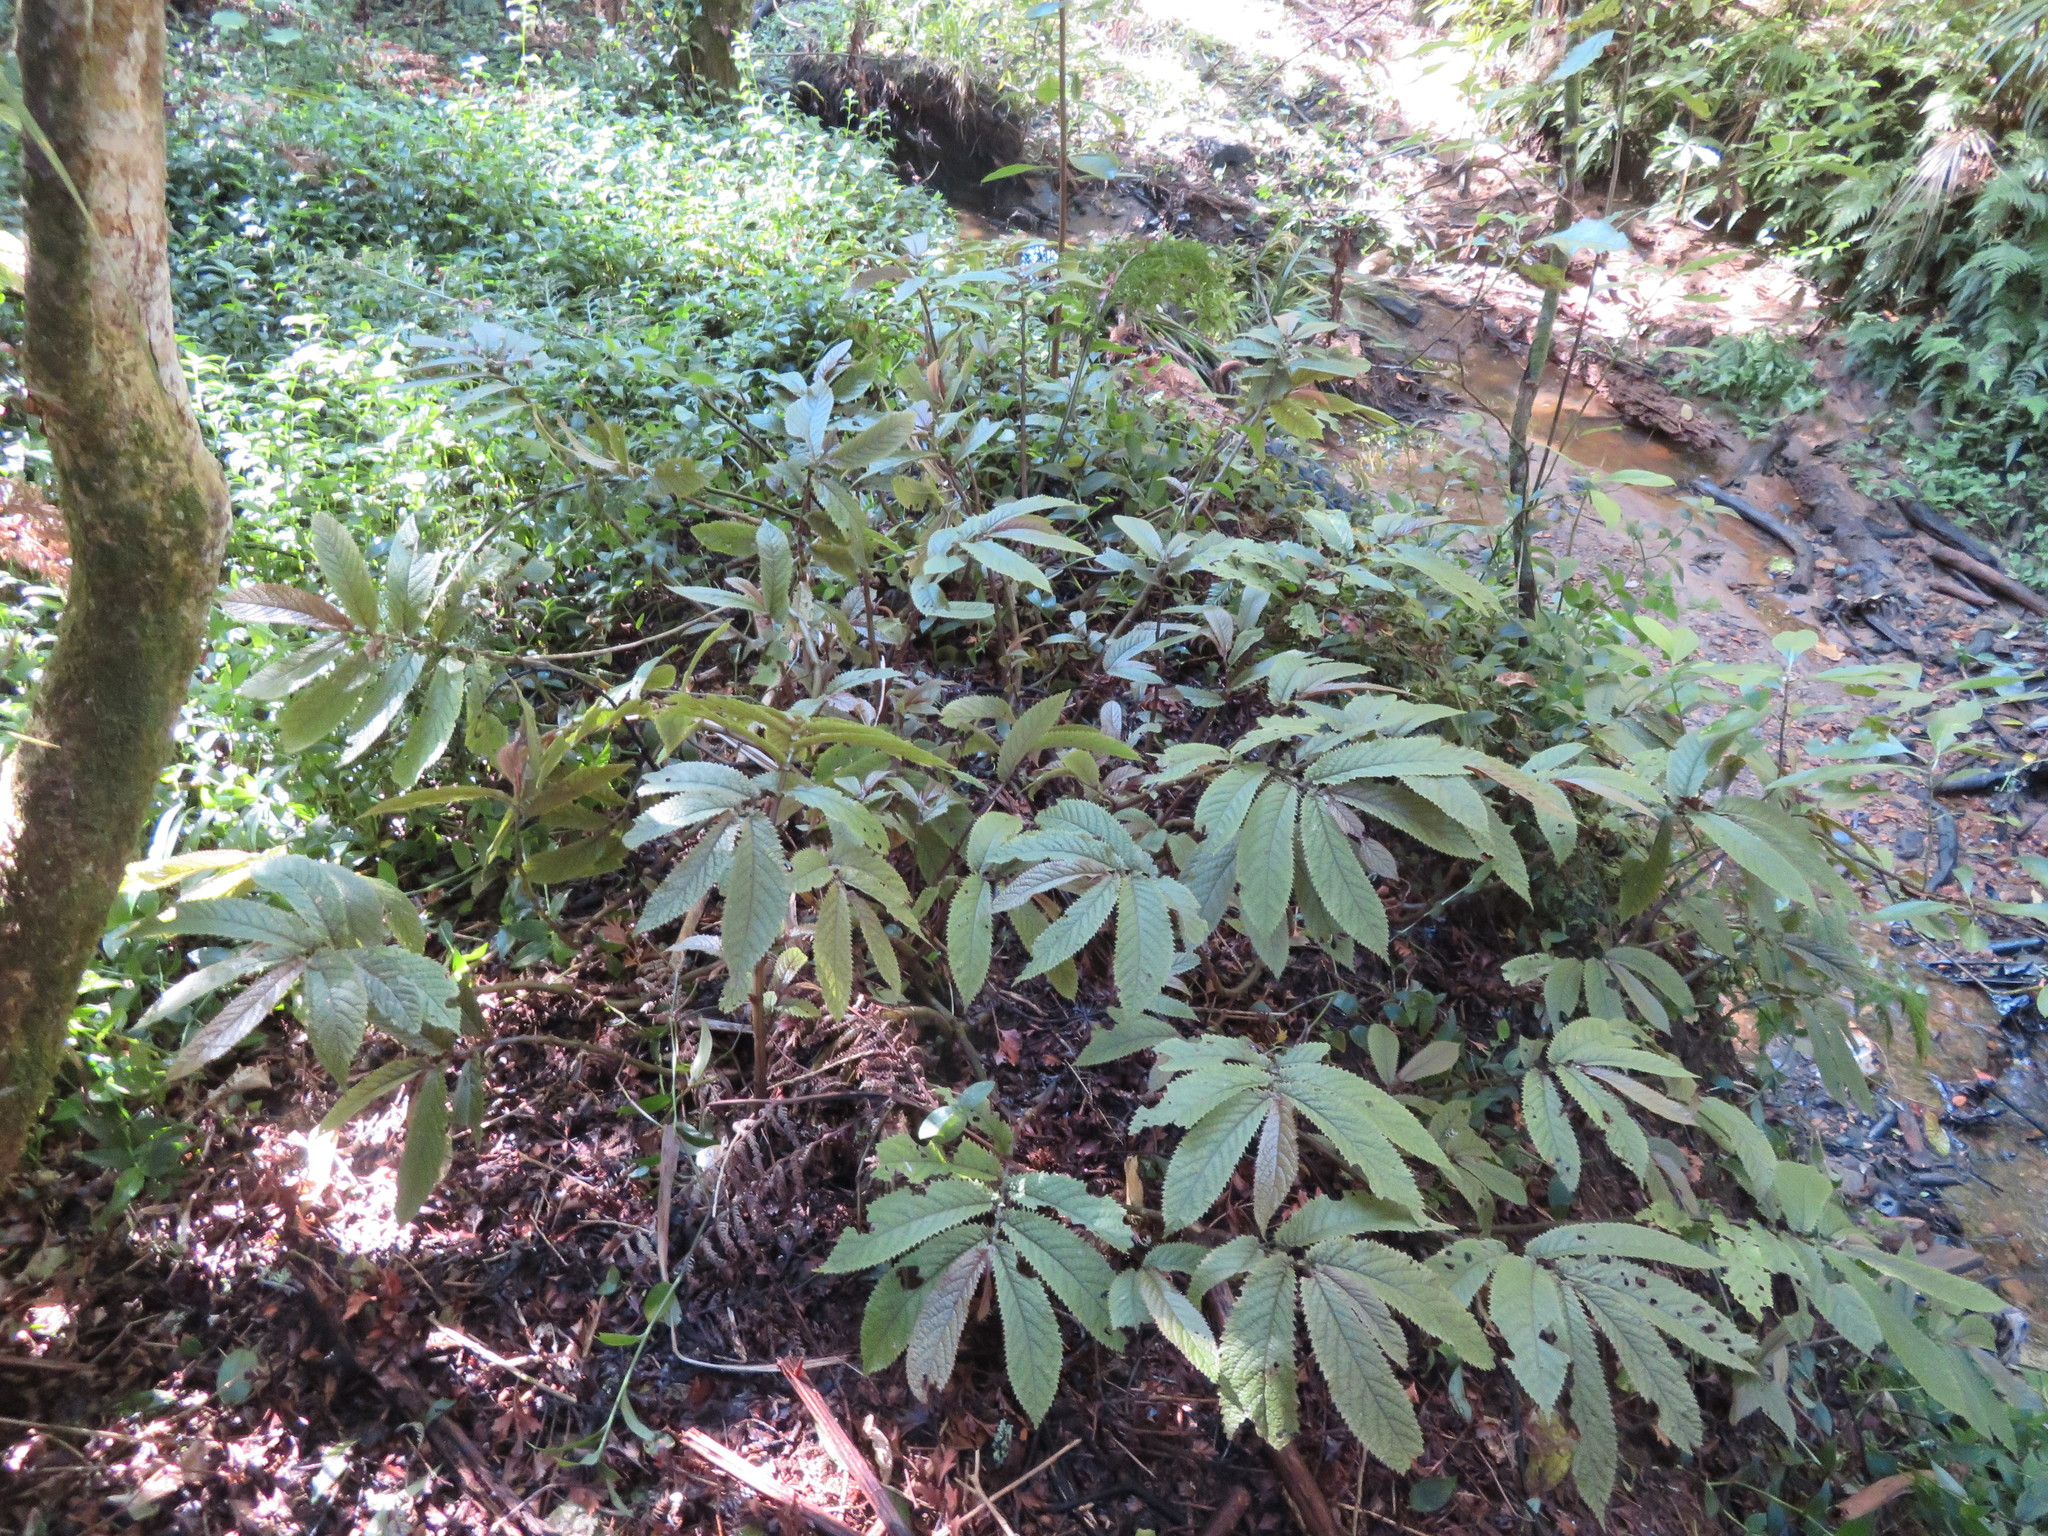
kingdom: Plantae
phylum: Tracheophyta
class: Liliopsida
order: Commelinales
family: Commelinaceae
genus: Tradescantia
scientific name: Tradescantia fluminensis
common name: Wandering-jew
